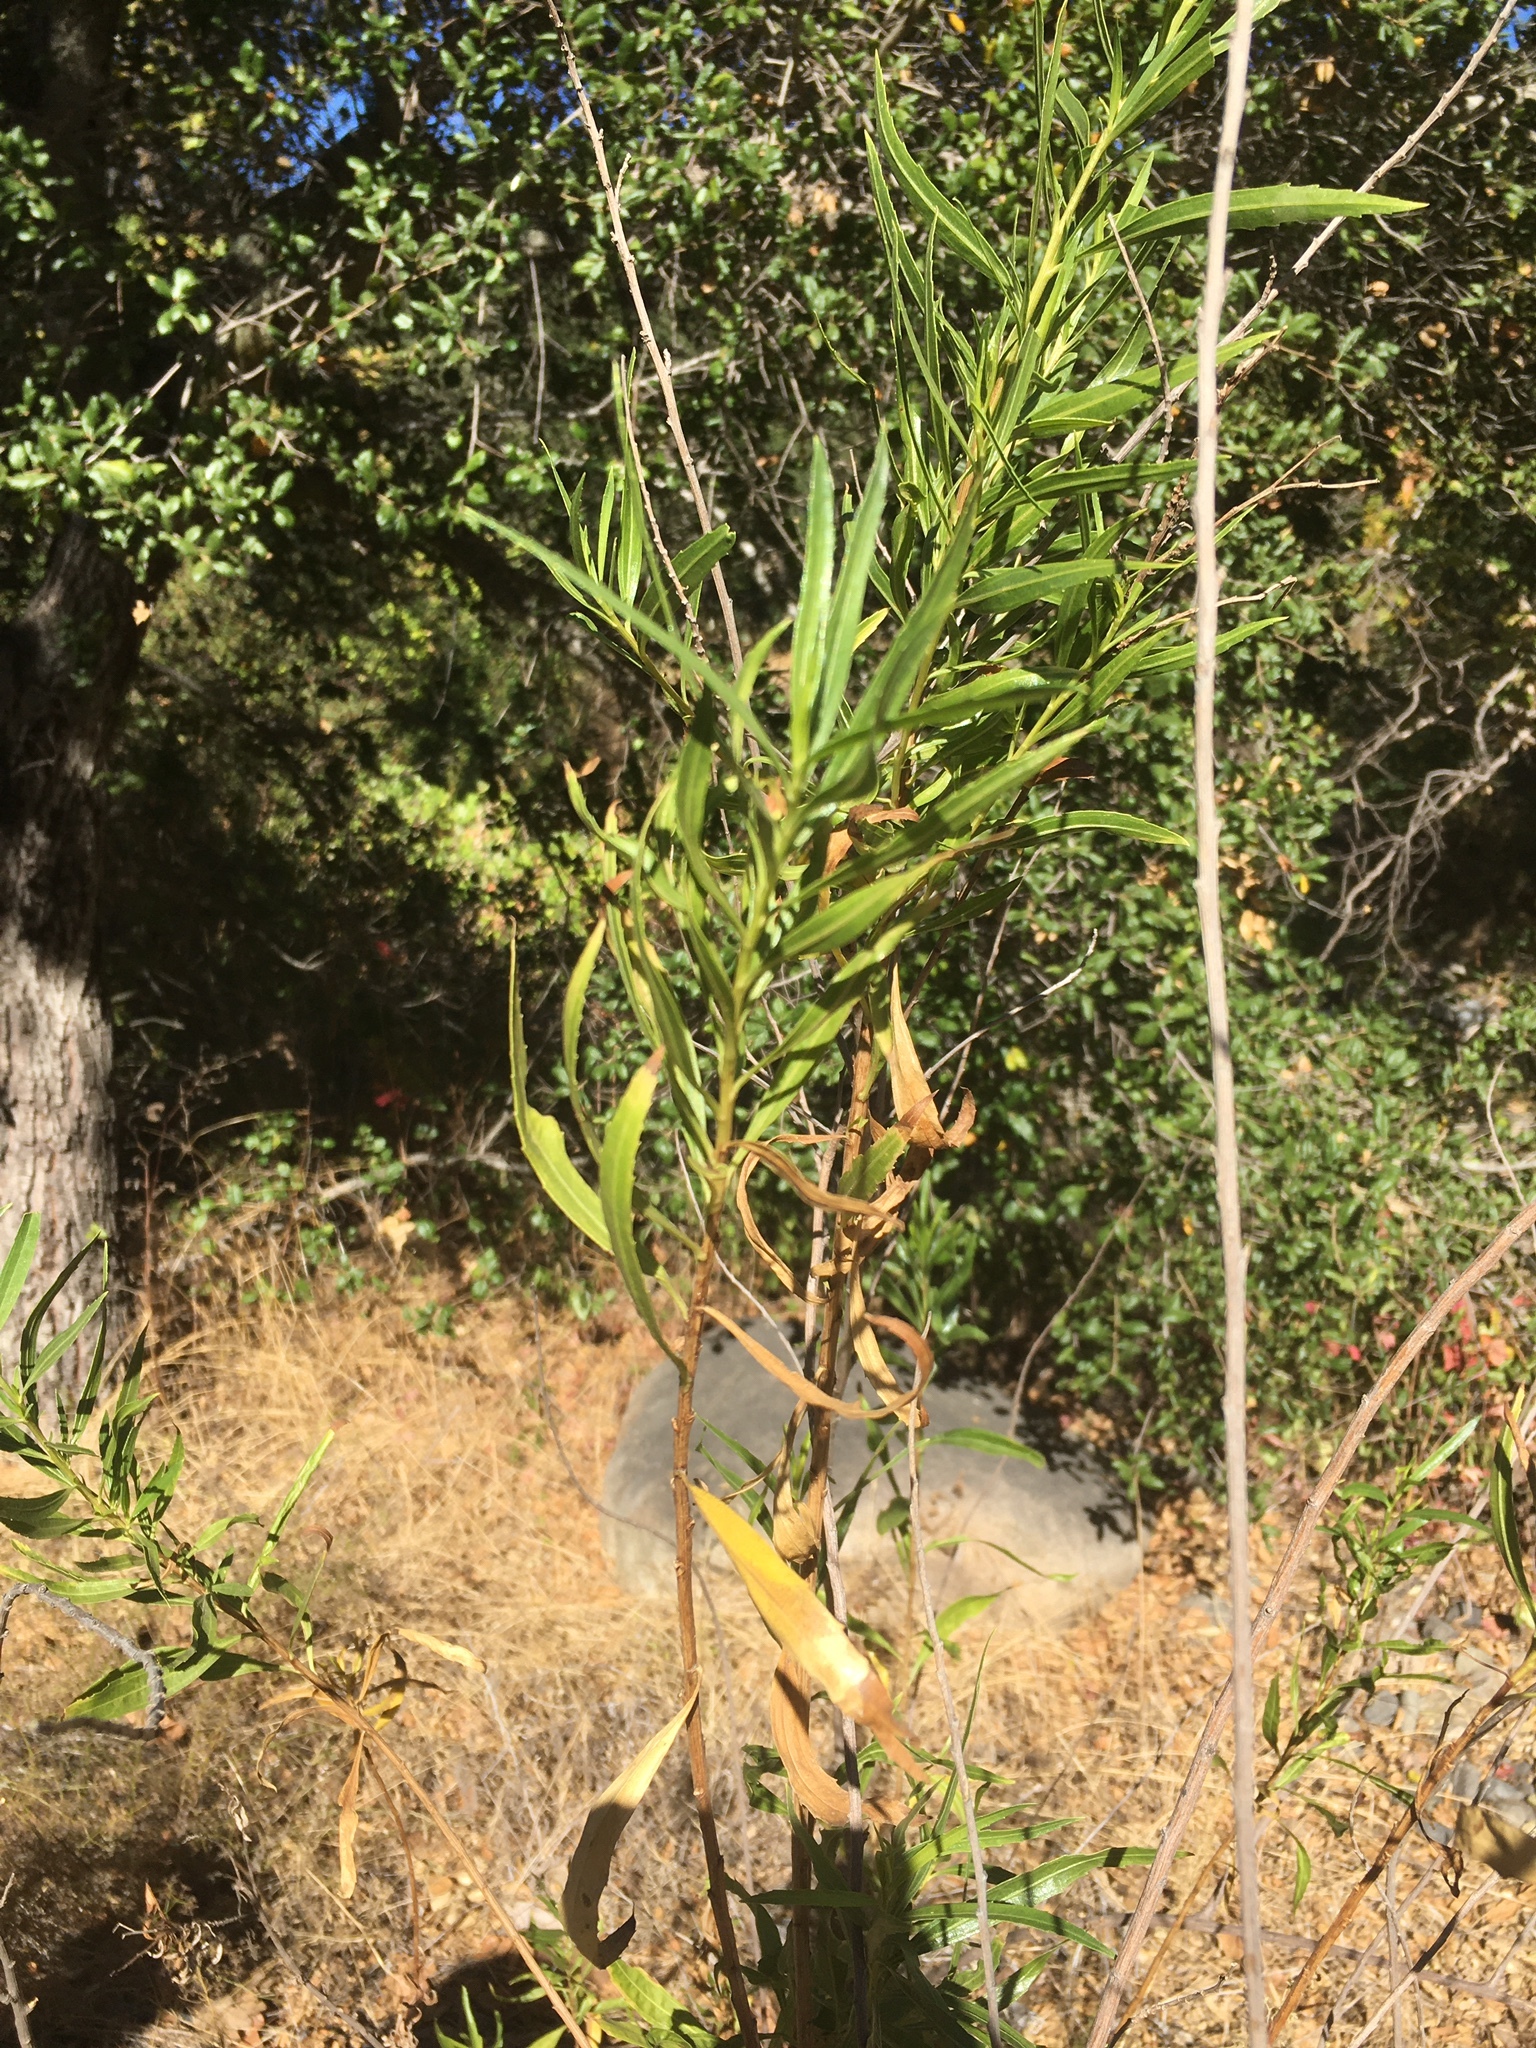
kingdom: Plantae
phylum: Tracheophyta
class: Magnoliopsida
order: Asterales
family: Asteraceae
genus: Baccharis
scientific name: Baccharis salicifolia
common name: Sticky baccharis
